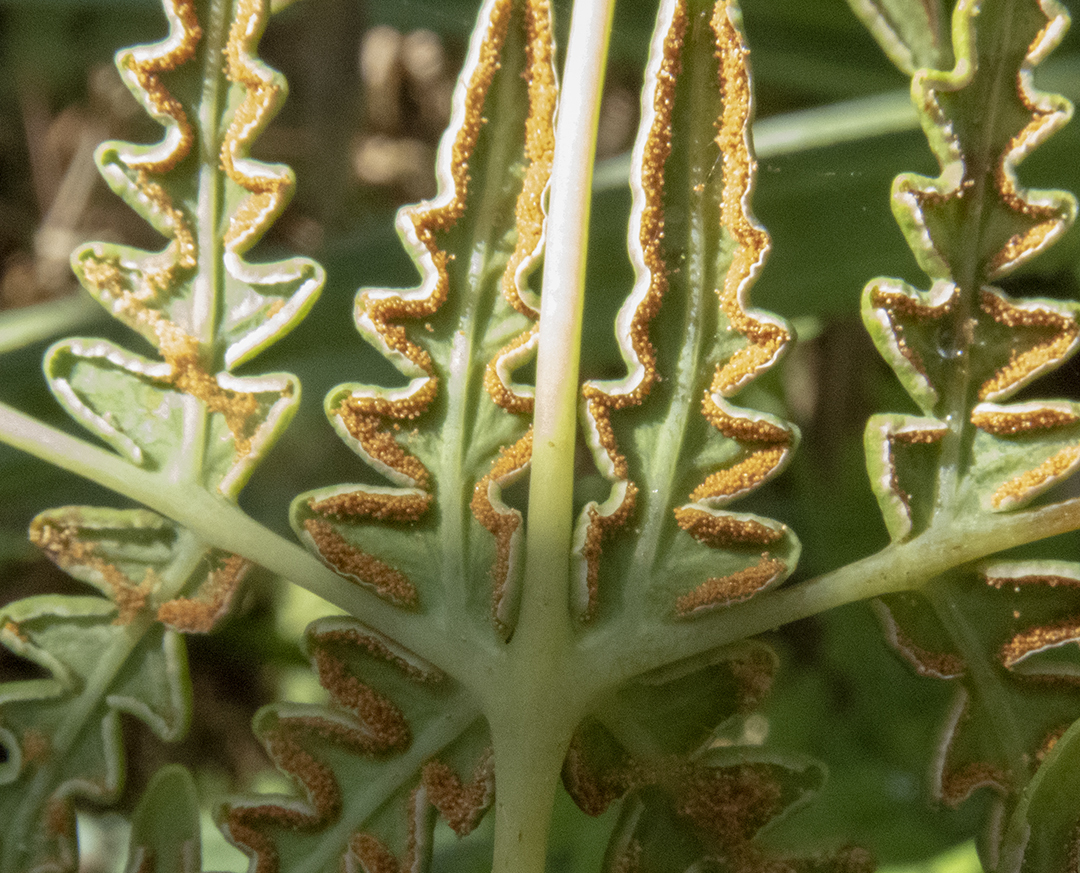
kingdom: Plantae
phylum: Tracheophyta
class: Polypodiopsida
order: Polypodiales
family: Dennstaedtiaceae
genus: Histiopteris
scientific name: Histiopteris incisa
